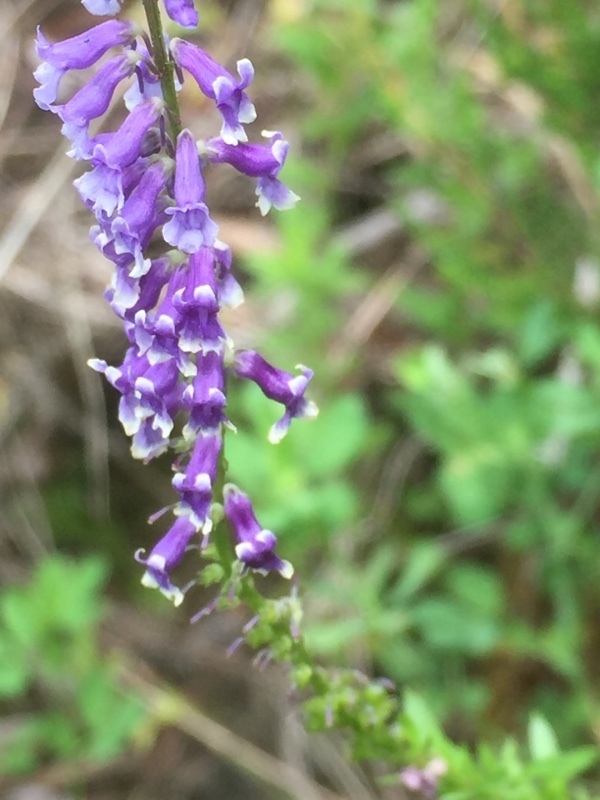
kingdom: Plantae
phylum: Tracheophyta
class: Magnoliopsida
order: Lamiales
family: Plantaginaceae
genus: Anarrhinum
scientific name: Anarrhinum bellidifolium
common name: Daisy-leaved toadflax
